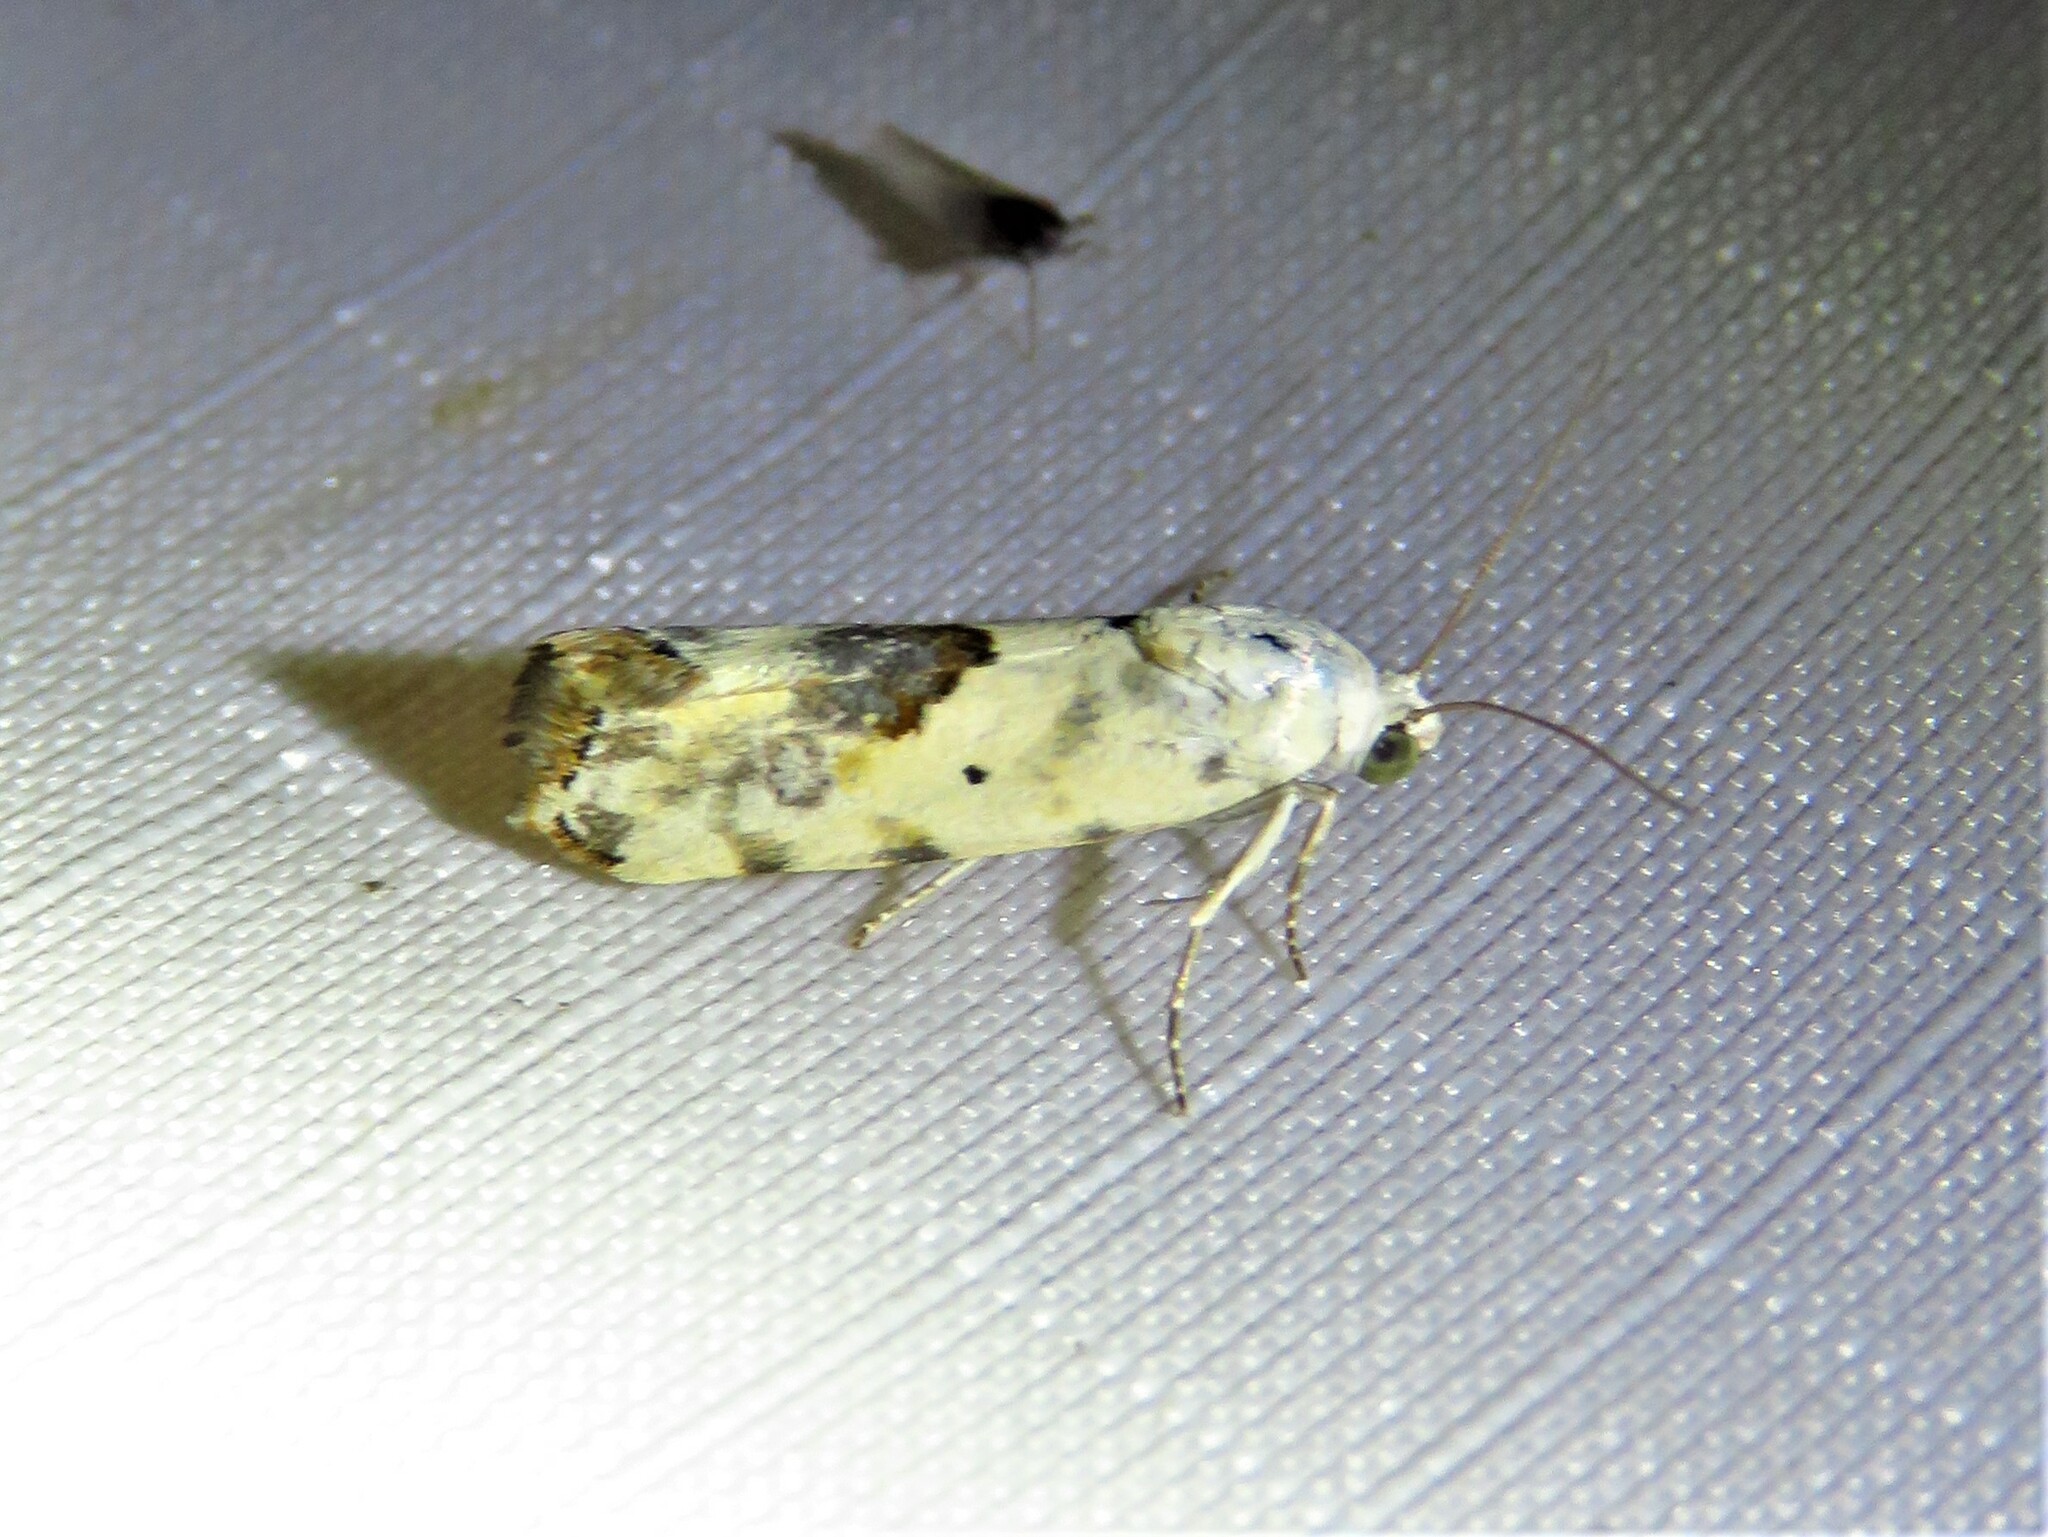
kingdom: Animalia
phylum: Arthropoda
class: Insecta
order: Lepidoptera
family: Noctuidae
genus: Acontia
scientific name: Acontia libedis
